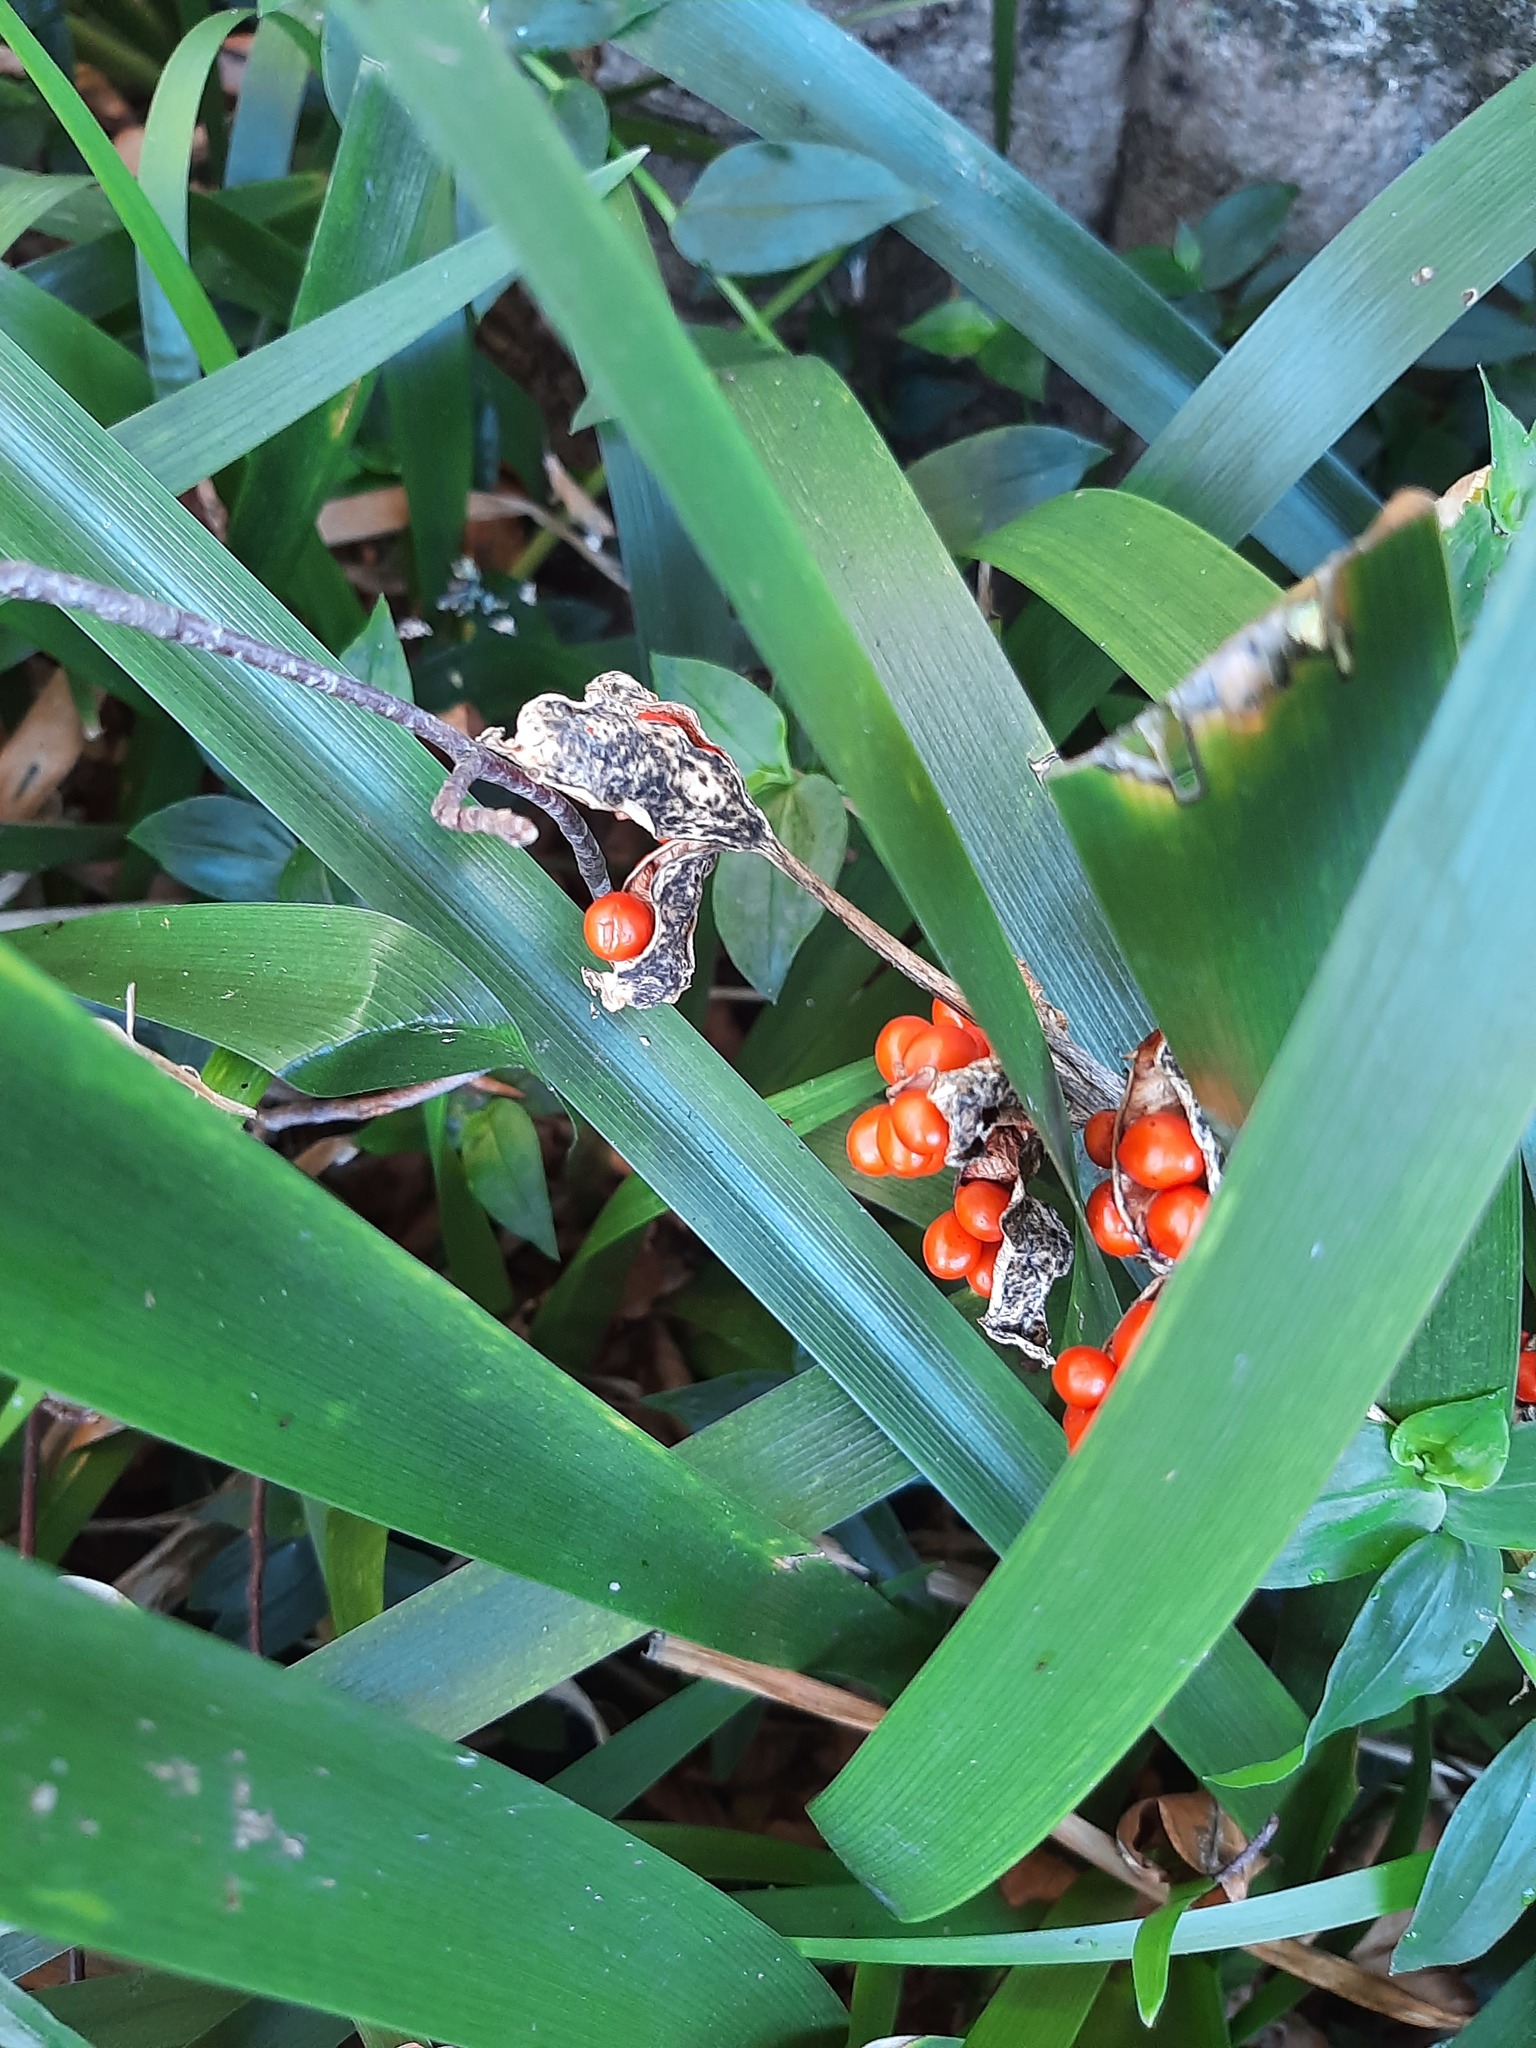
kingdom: Plantae
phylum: Tracheophyta
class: Liliopsida
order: Asparagales
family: Iridaceae
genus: Iris
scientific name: Iris foetidissima
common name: Stinking iris
